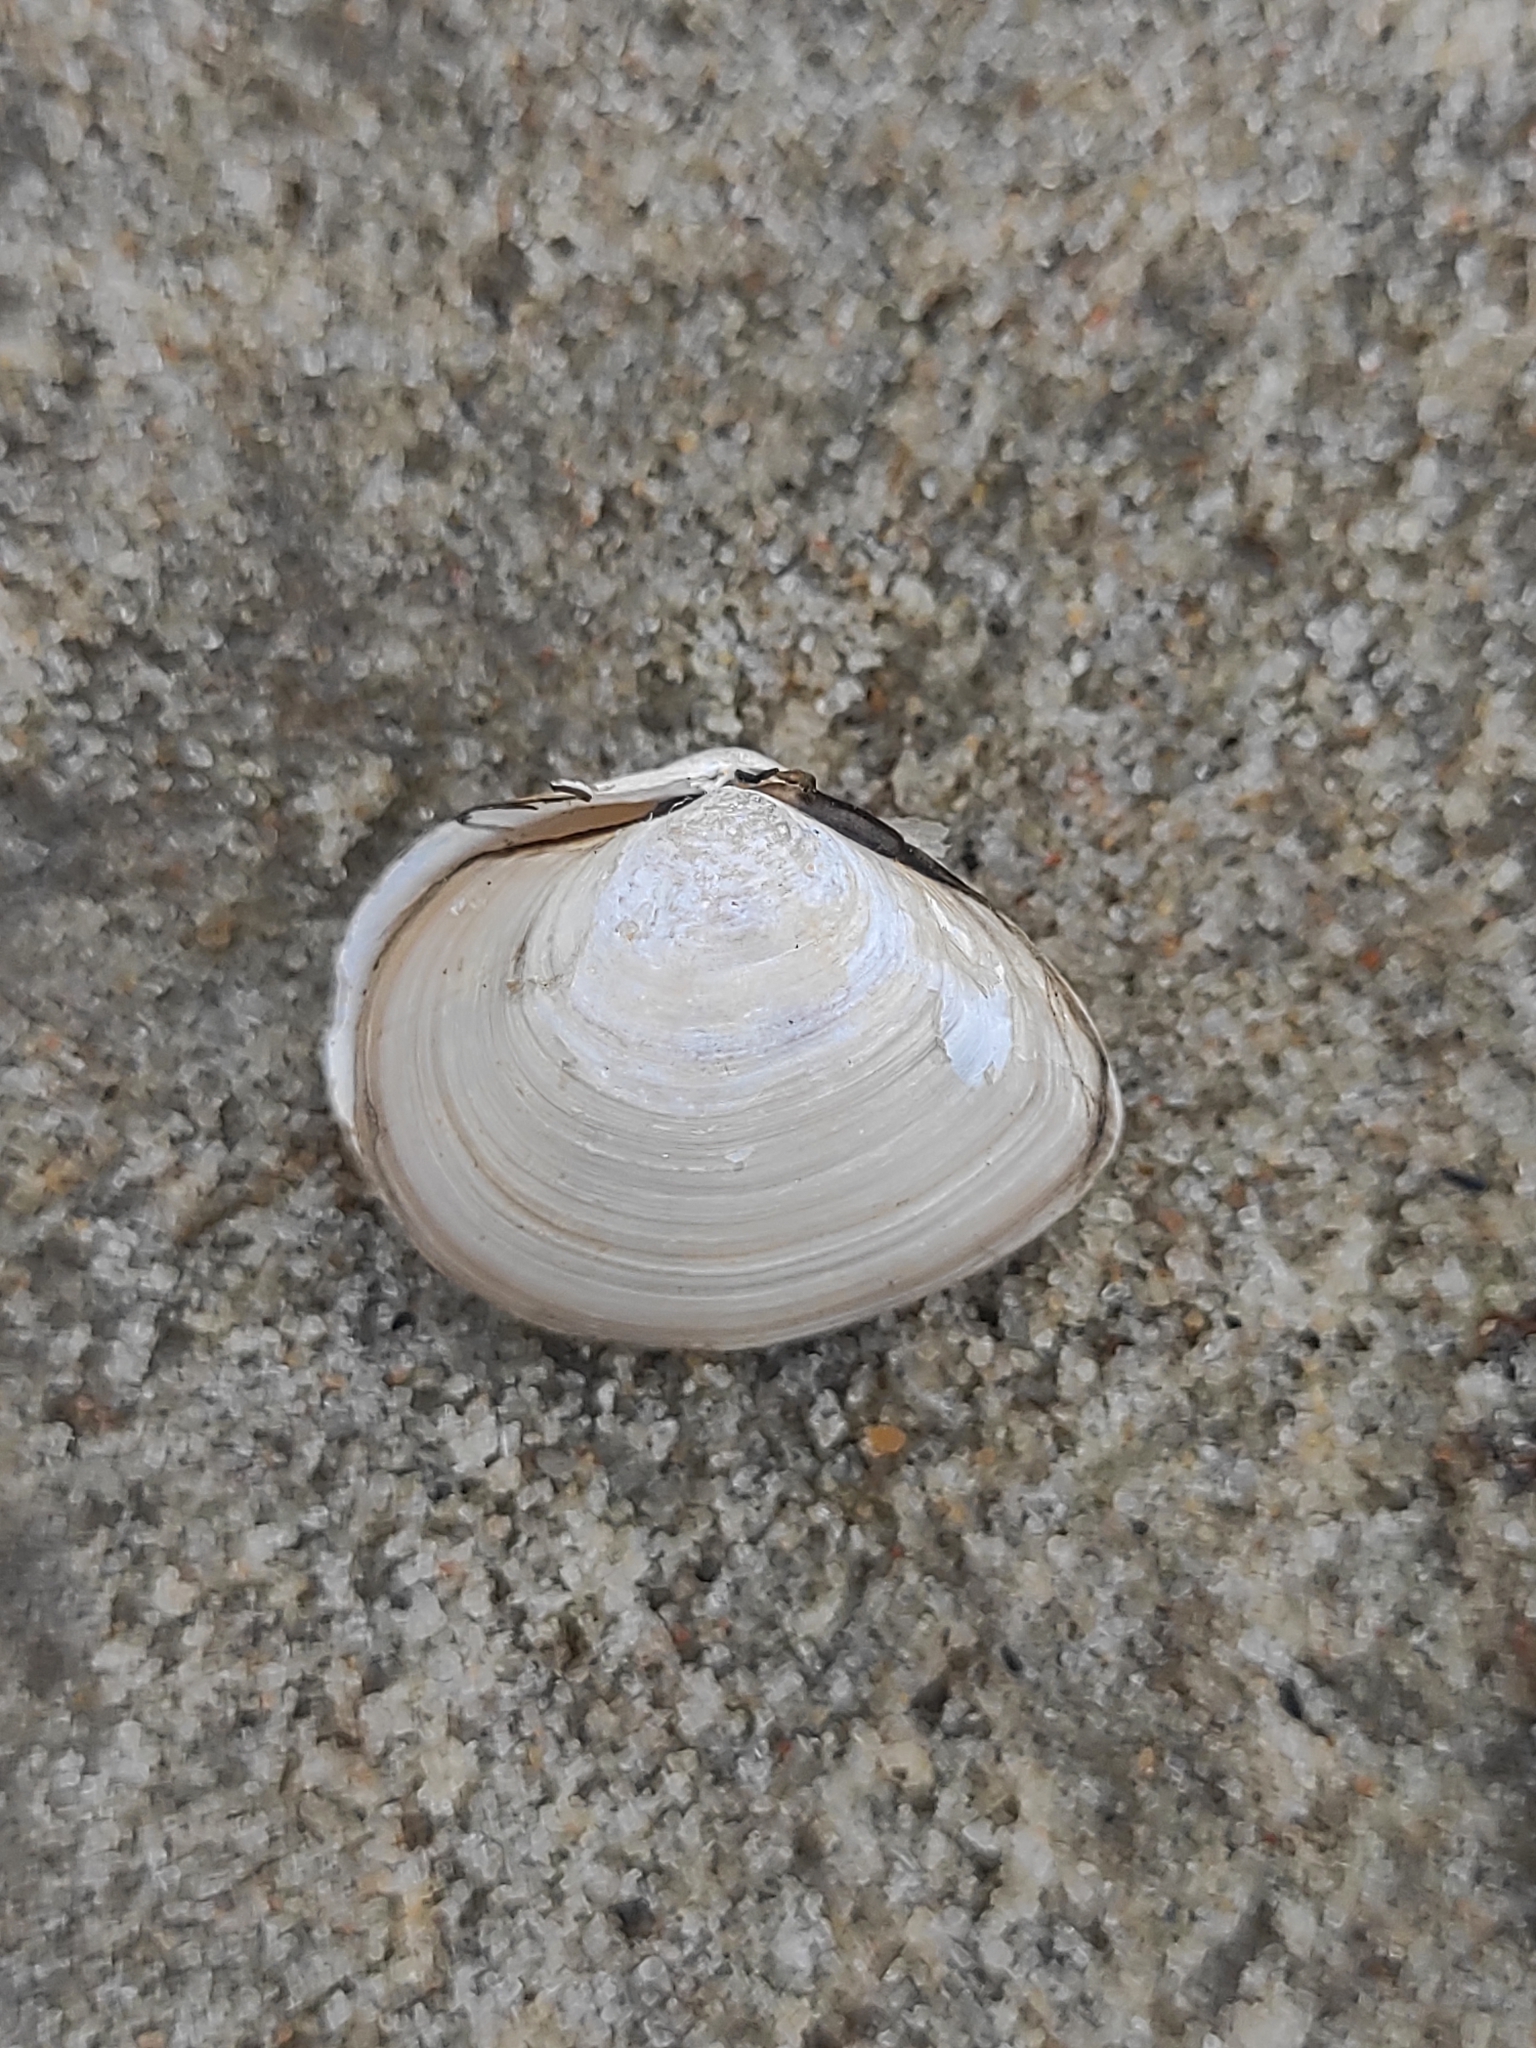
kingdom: Animalia
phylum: Mollusca
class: Bivalvia
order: Cardiida
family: Tellinidae
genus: Macoma
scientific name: Macoma balthica
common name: Baltic tellin
